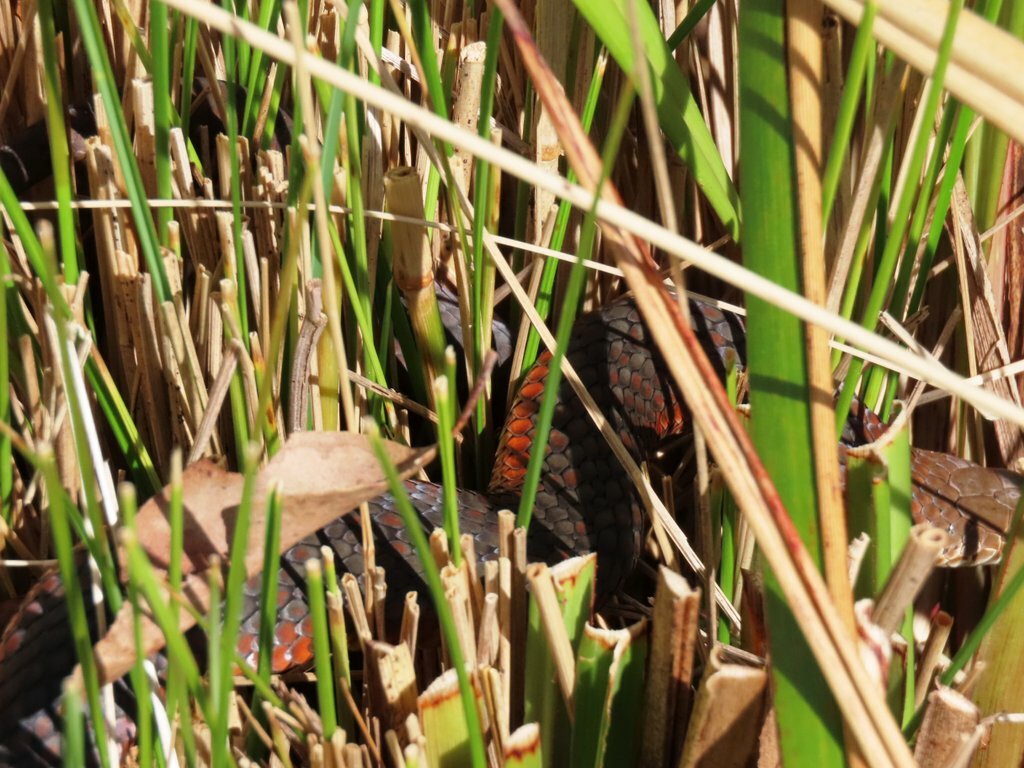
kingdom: Animalia
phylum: Chordata
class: Squamata
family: Elapidae
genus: Austrelaps
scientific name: Austrelaps superbus
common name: Copperhead snake
